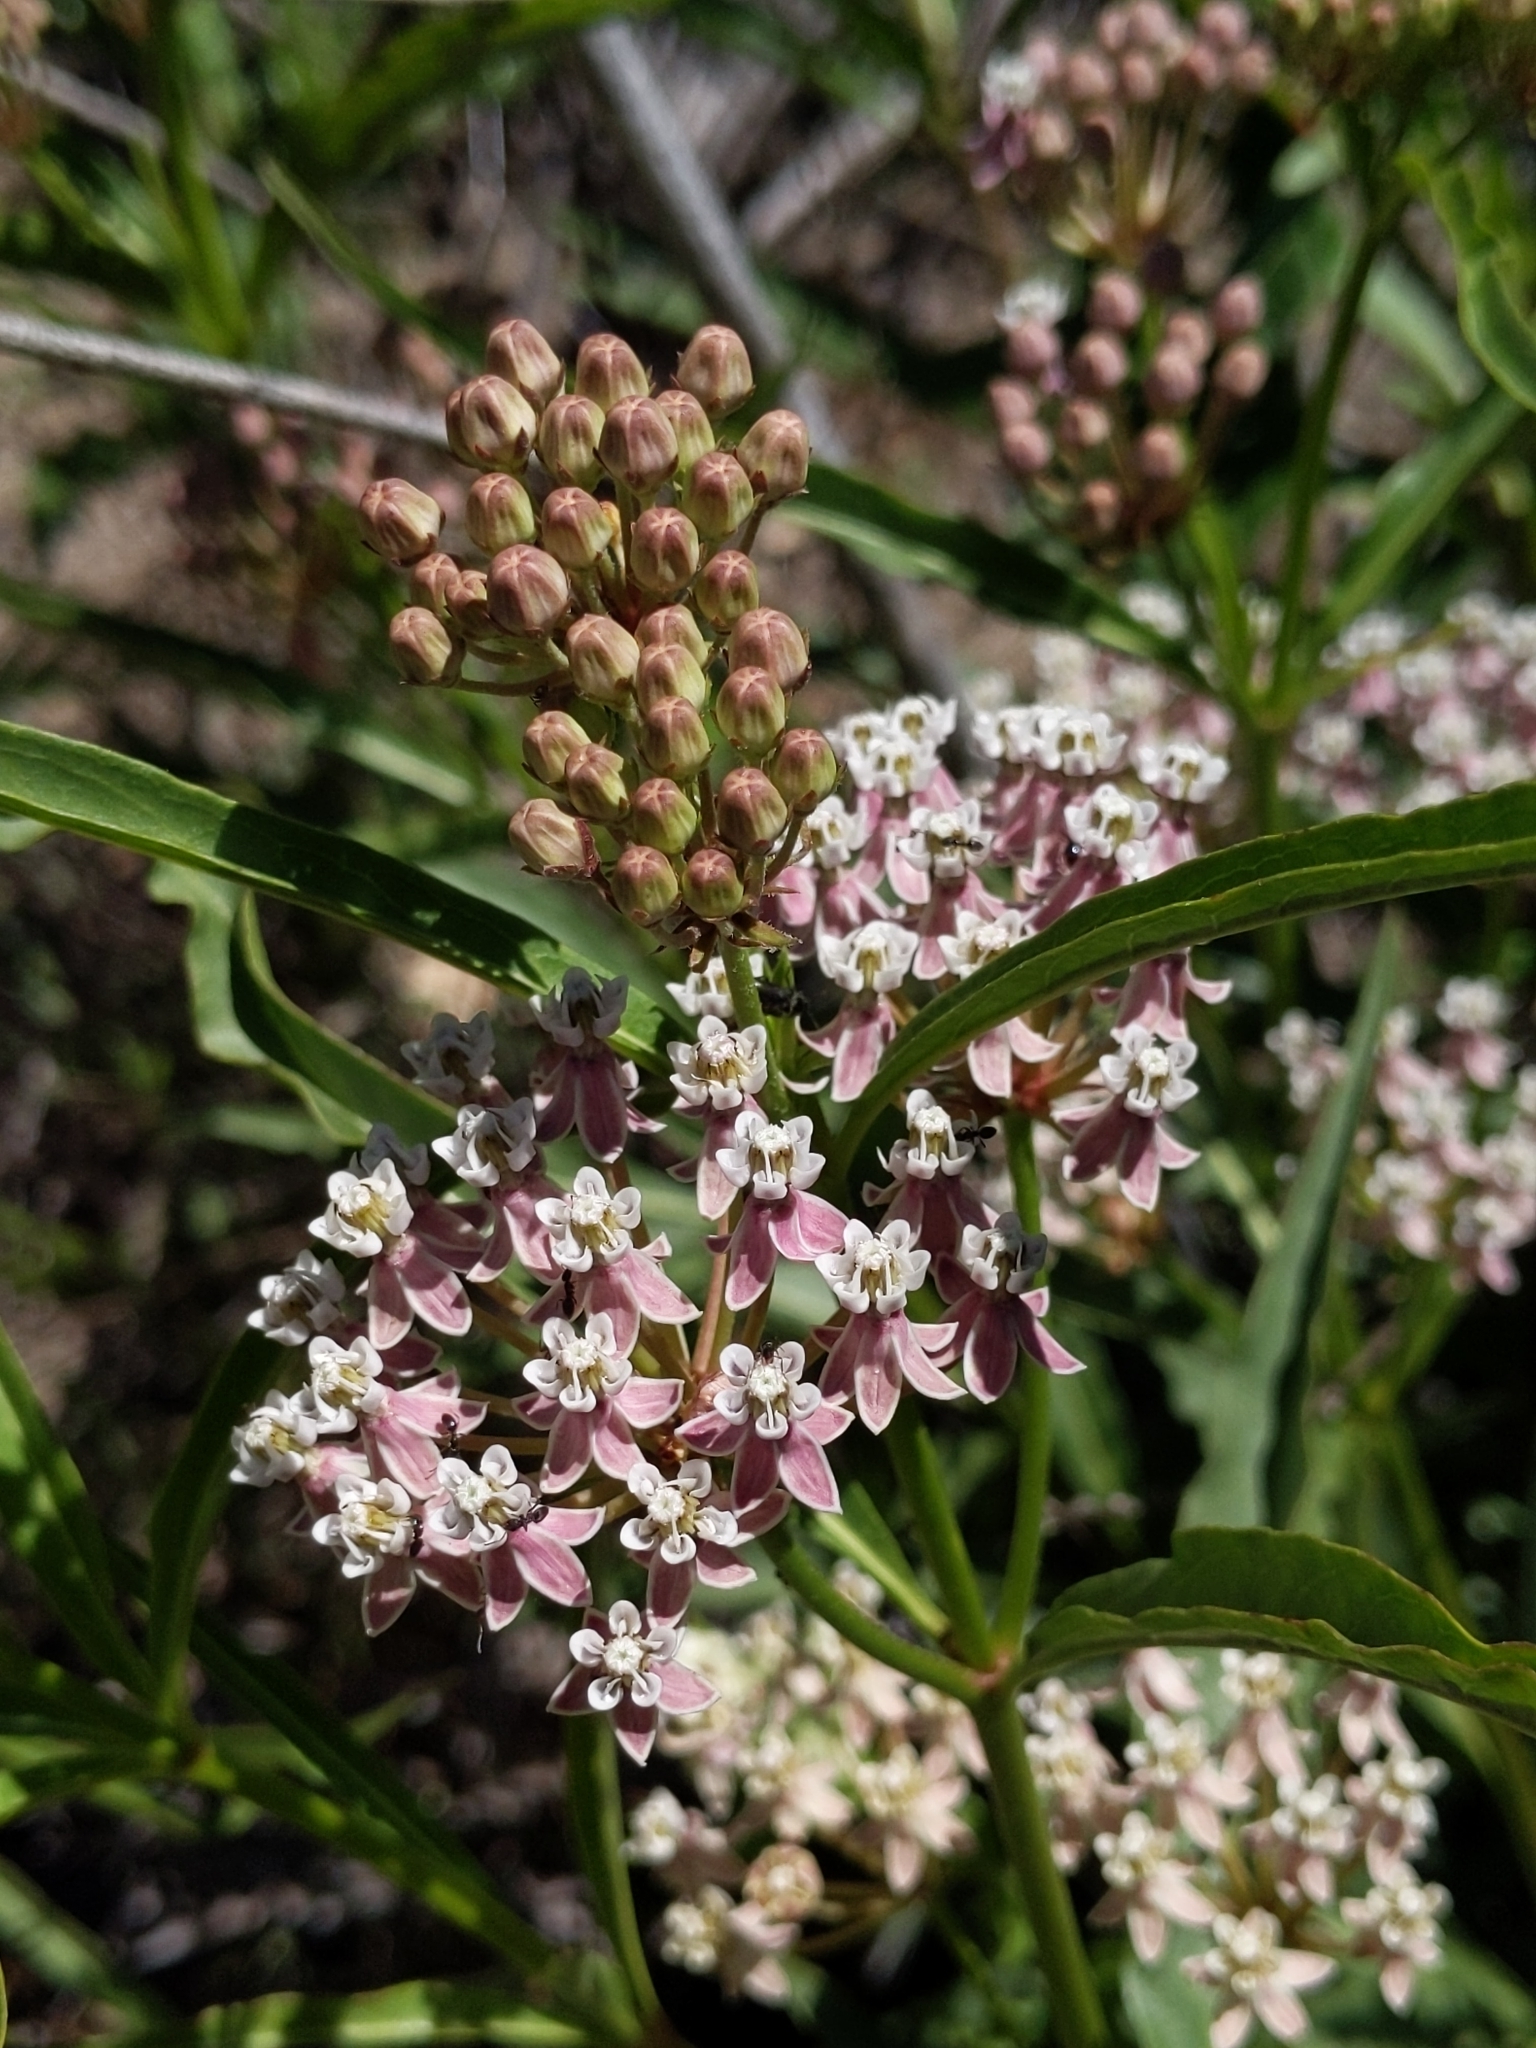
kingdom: Plantae
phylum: Tracheophyta
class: Magnoliopsida
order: Gentianales
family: Apocynaceae
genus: Asclepias
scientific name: Asclepias fascicularis
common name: Mexican milkweed
